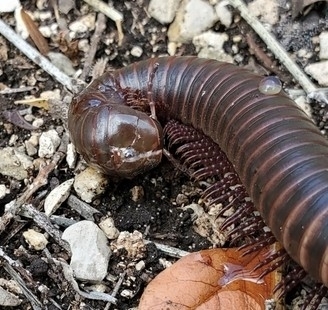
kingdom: Animalia
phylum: Arthropoda
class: Diplopoda
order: Spirostreptida
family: Spirostreptidae
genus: Orthoporus
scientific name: Orthoporus ornatus
